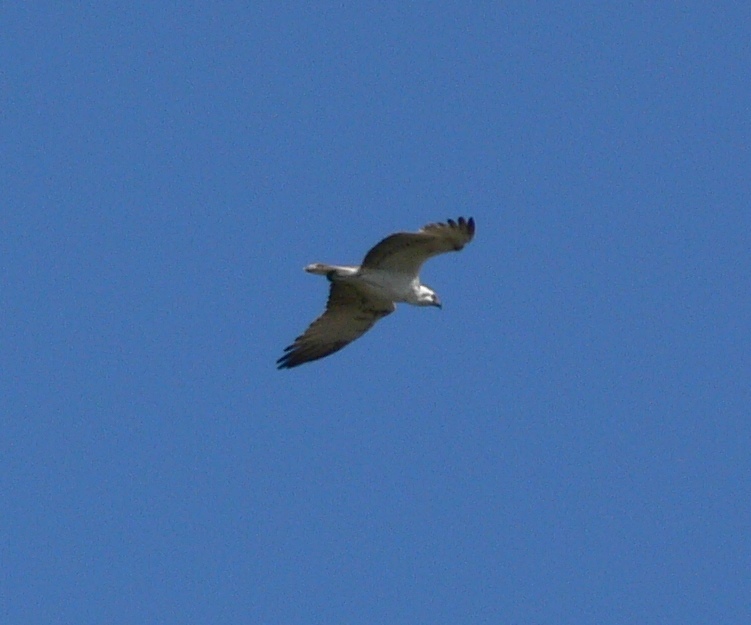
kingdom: Animalia
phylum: Chordata
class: Aves
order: Accipitriformes
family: Pandionidae
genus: Pandion
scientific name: Pandion haliaetus
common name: Osprey
